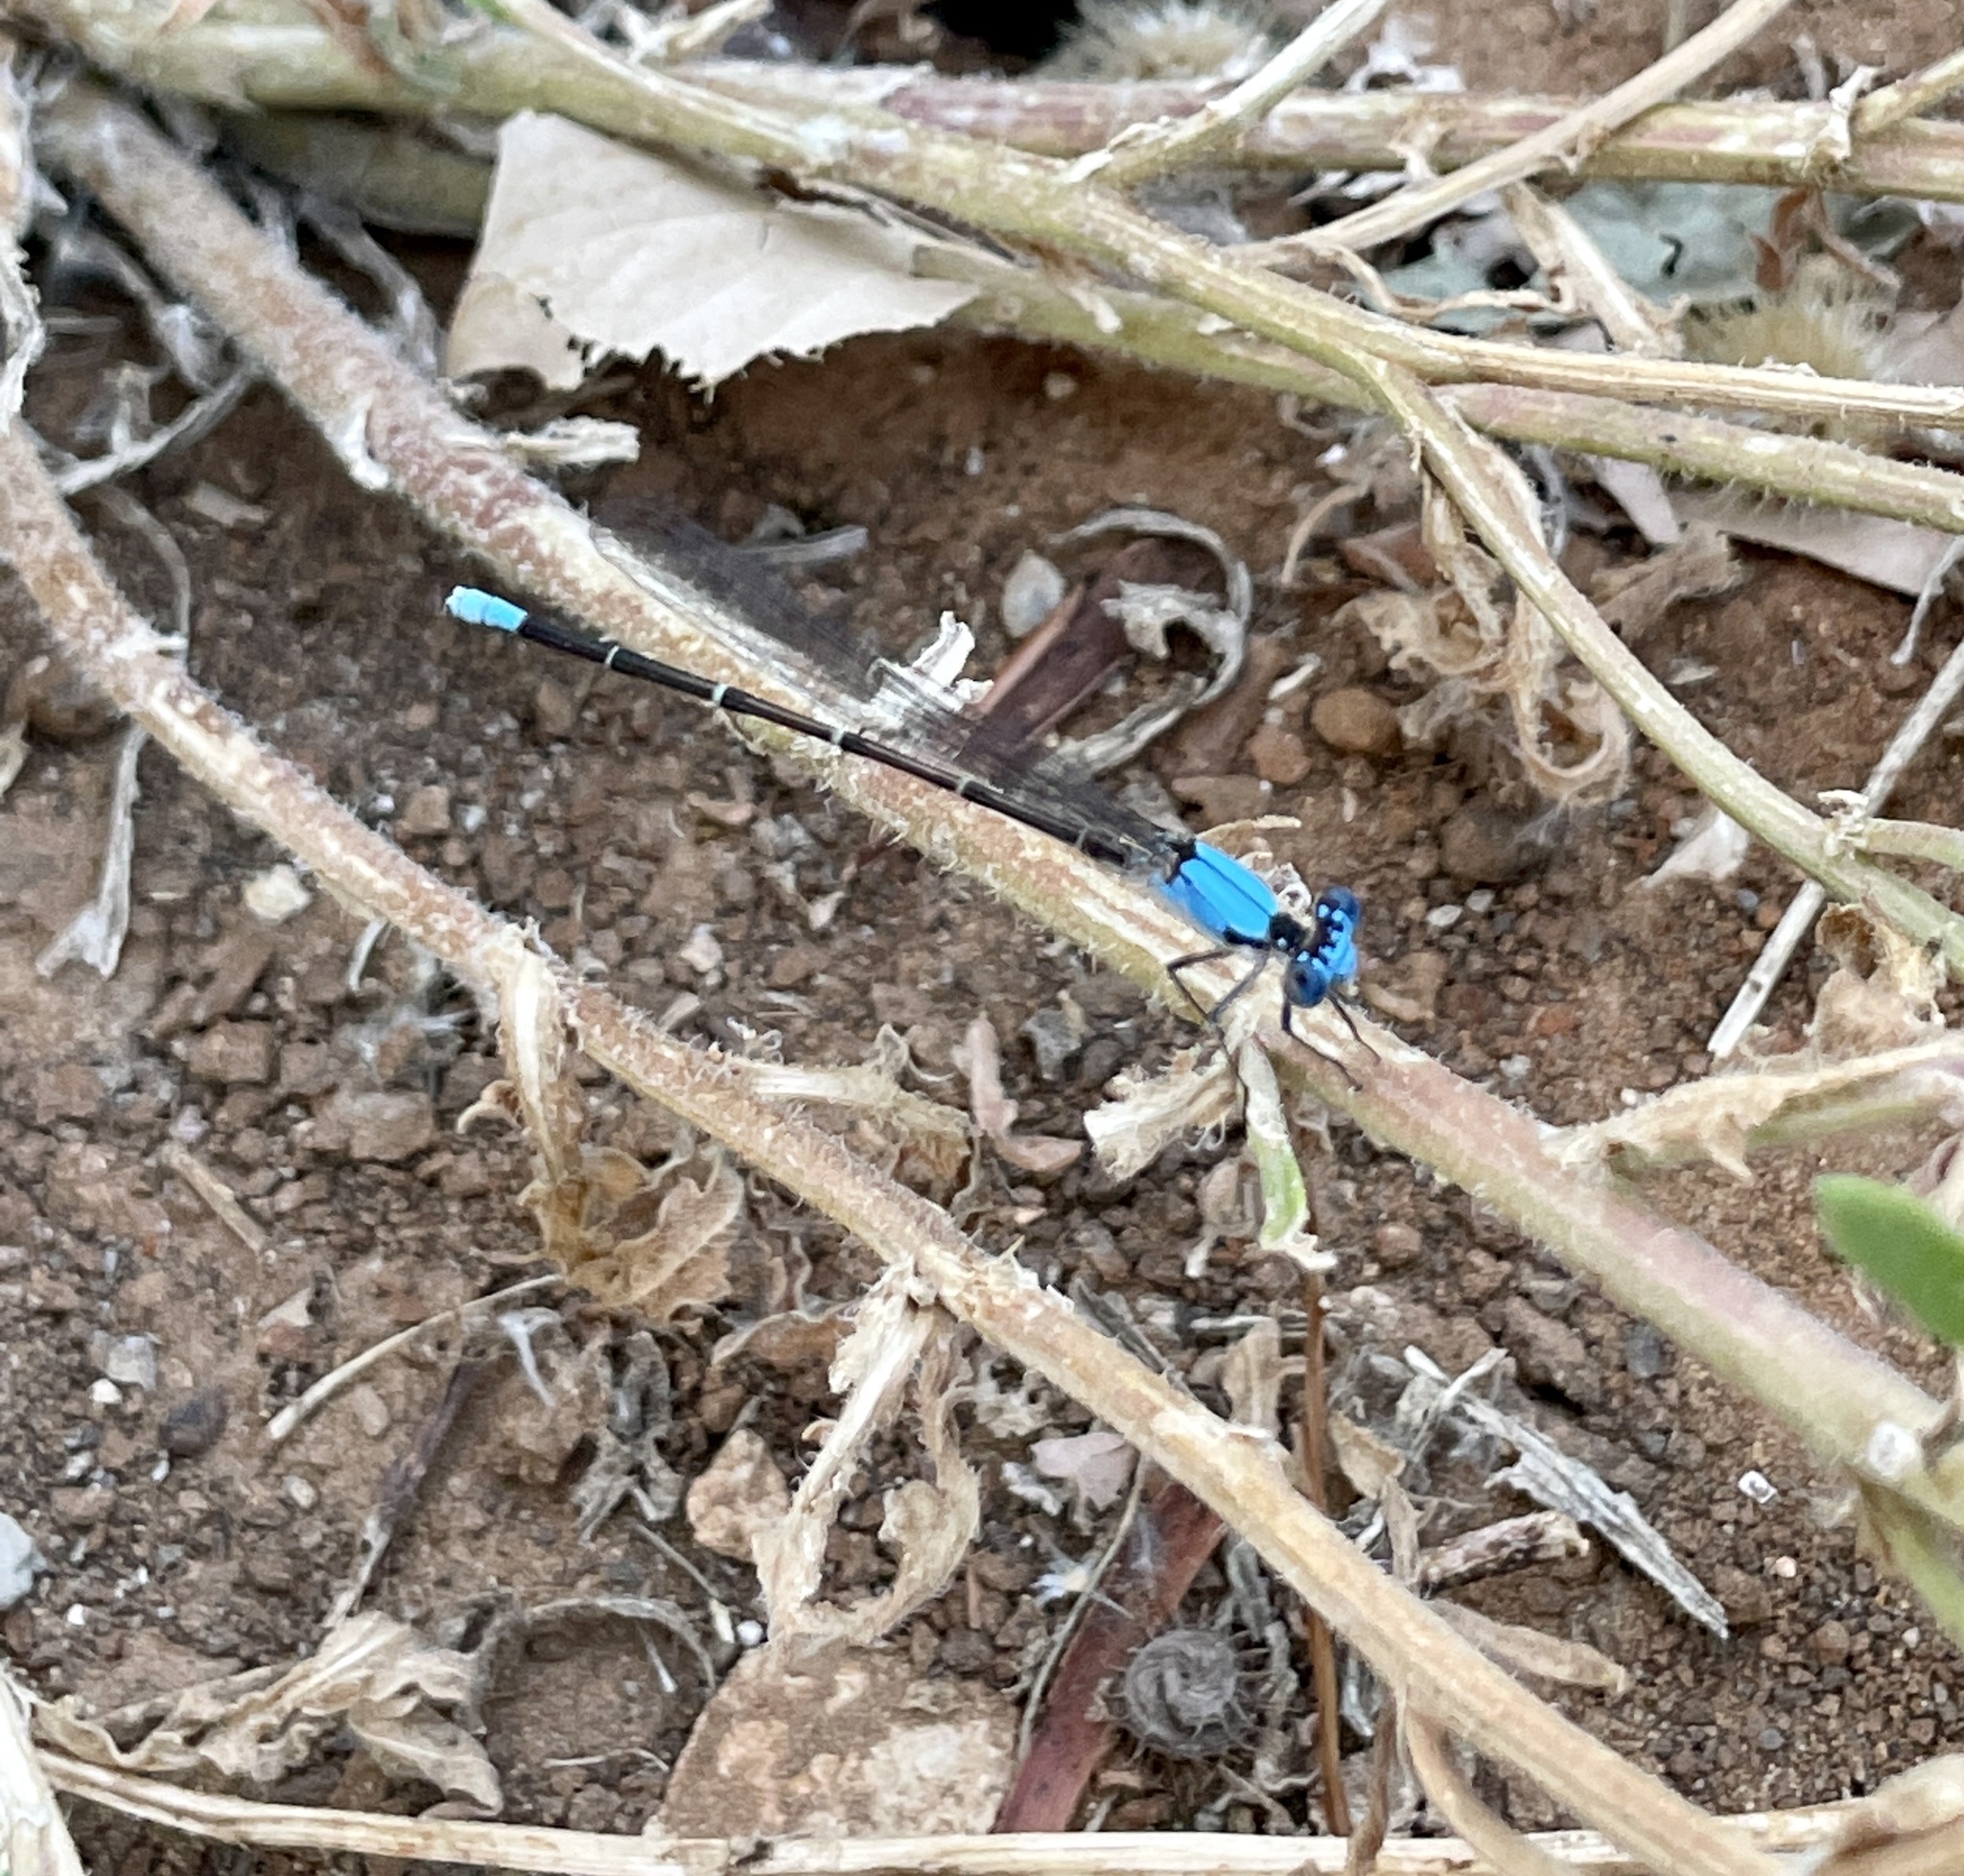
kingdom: Animalia
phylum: Arthropoda
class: Insecta
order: Odonata
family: Coenagrionidae
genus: Argia
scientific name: Argia apicalis
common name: Blue-fronted dancer
